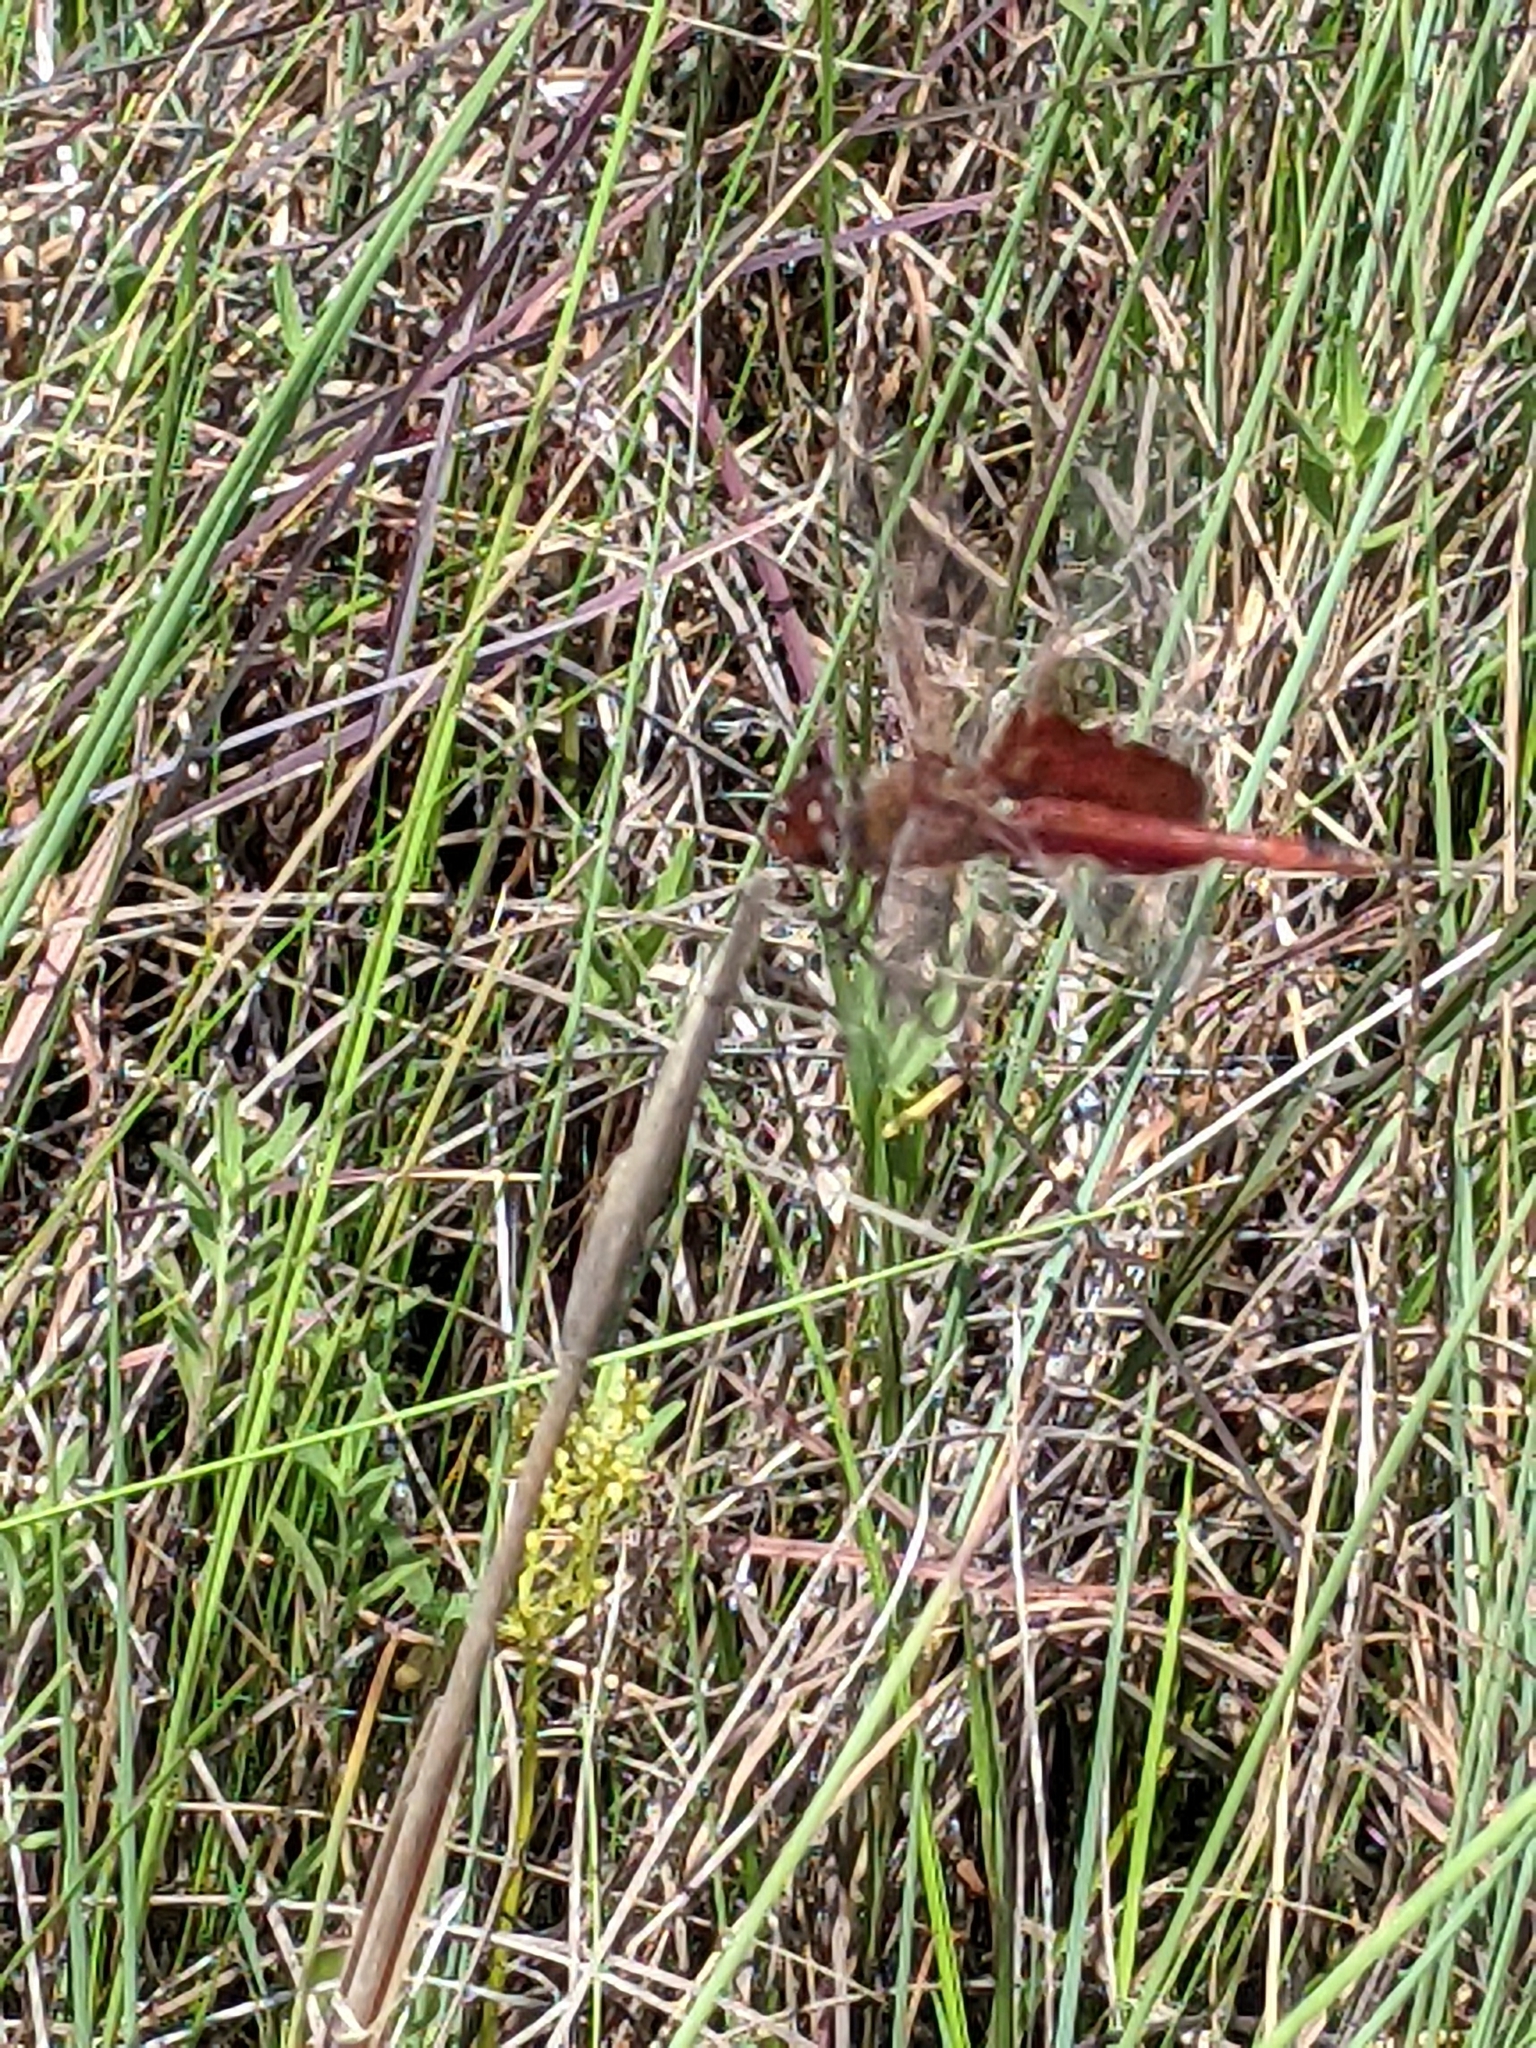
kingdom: Animalia
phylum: Arthropoda
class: Insecta
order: Odonata
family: Libellulidae
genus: Tramea
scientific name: Tramea onusta
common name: Red saddlebags
